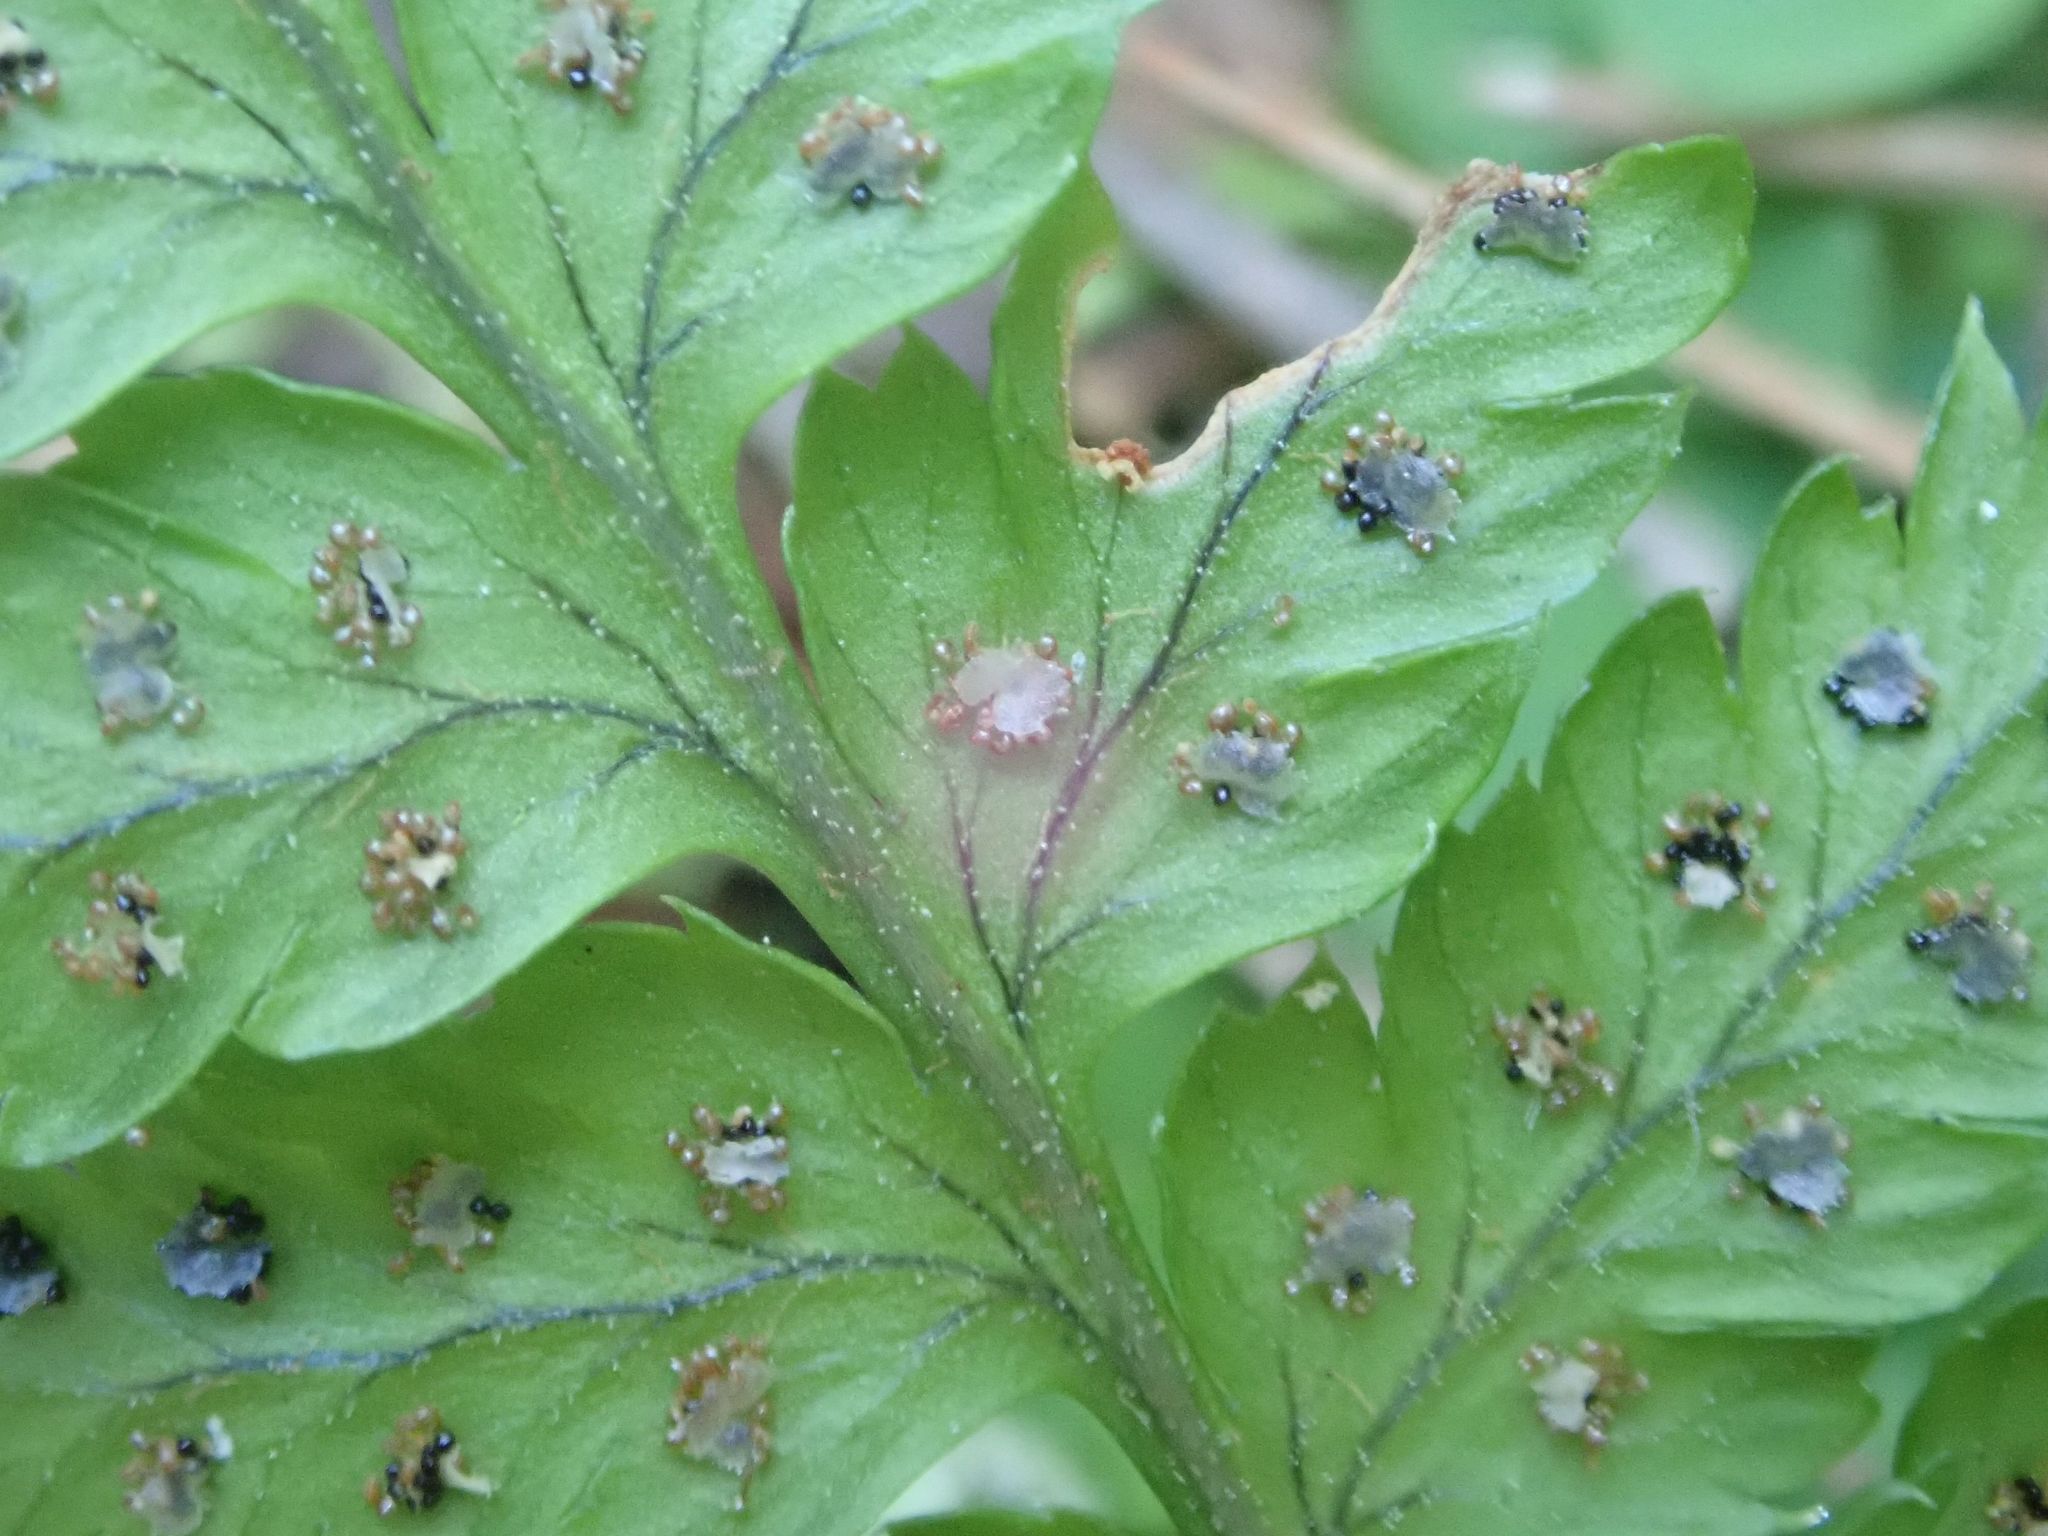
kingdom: Plantae
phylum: Tracheophyta
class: Polypodiopsida
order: Polypodiales
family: Dryopteridaceae
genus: Dryopteris
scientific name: Dryopteris dilatata
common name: Broad buckler-fern
